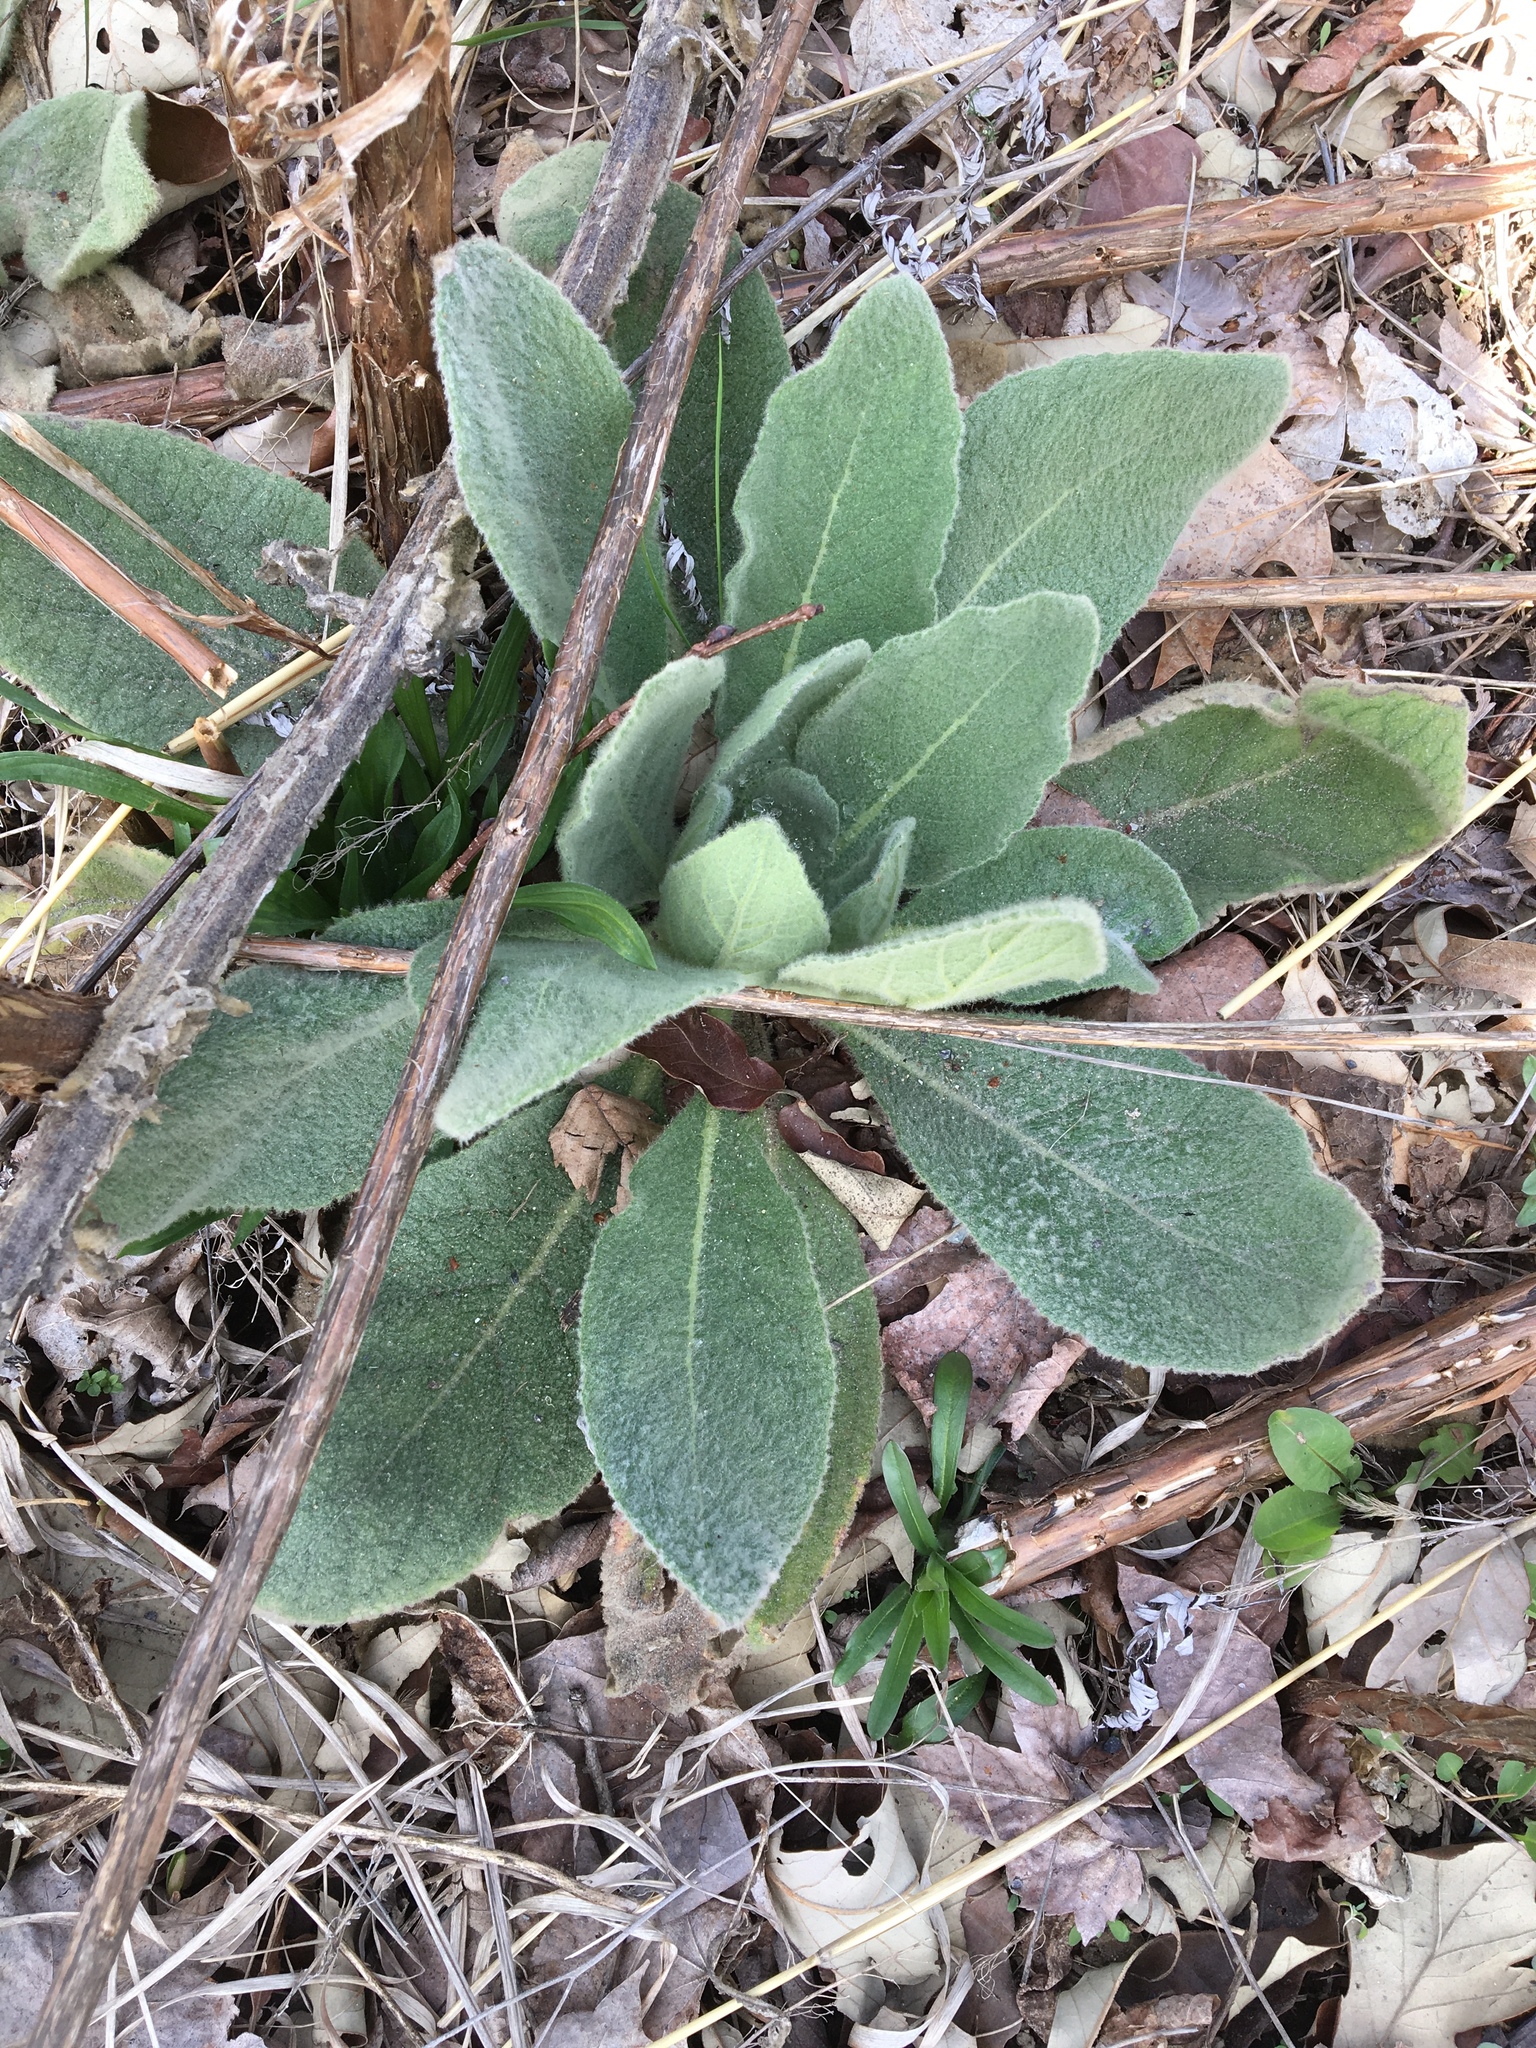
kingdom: Plantae
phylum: Tracheophyta
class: Magnoliopsida
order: Lamiales
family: Scrophulariaceae
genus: Verbascum
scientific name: Verbascum thapsus
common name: Common mullein
